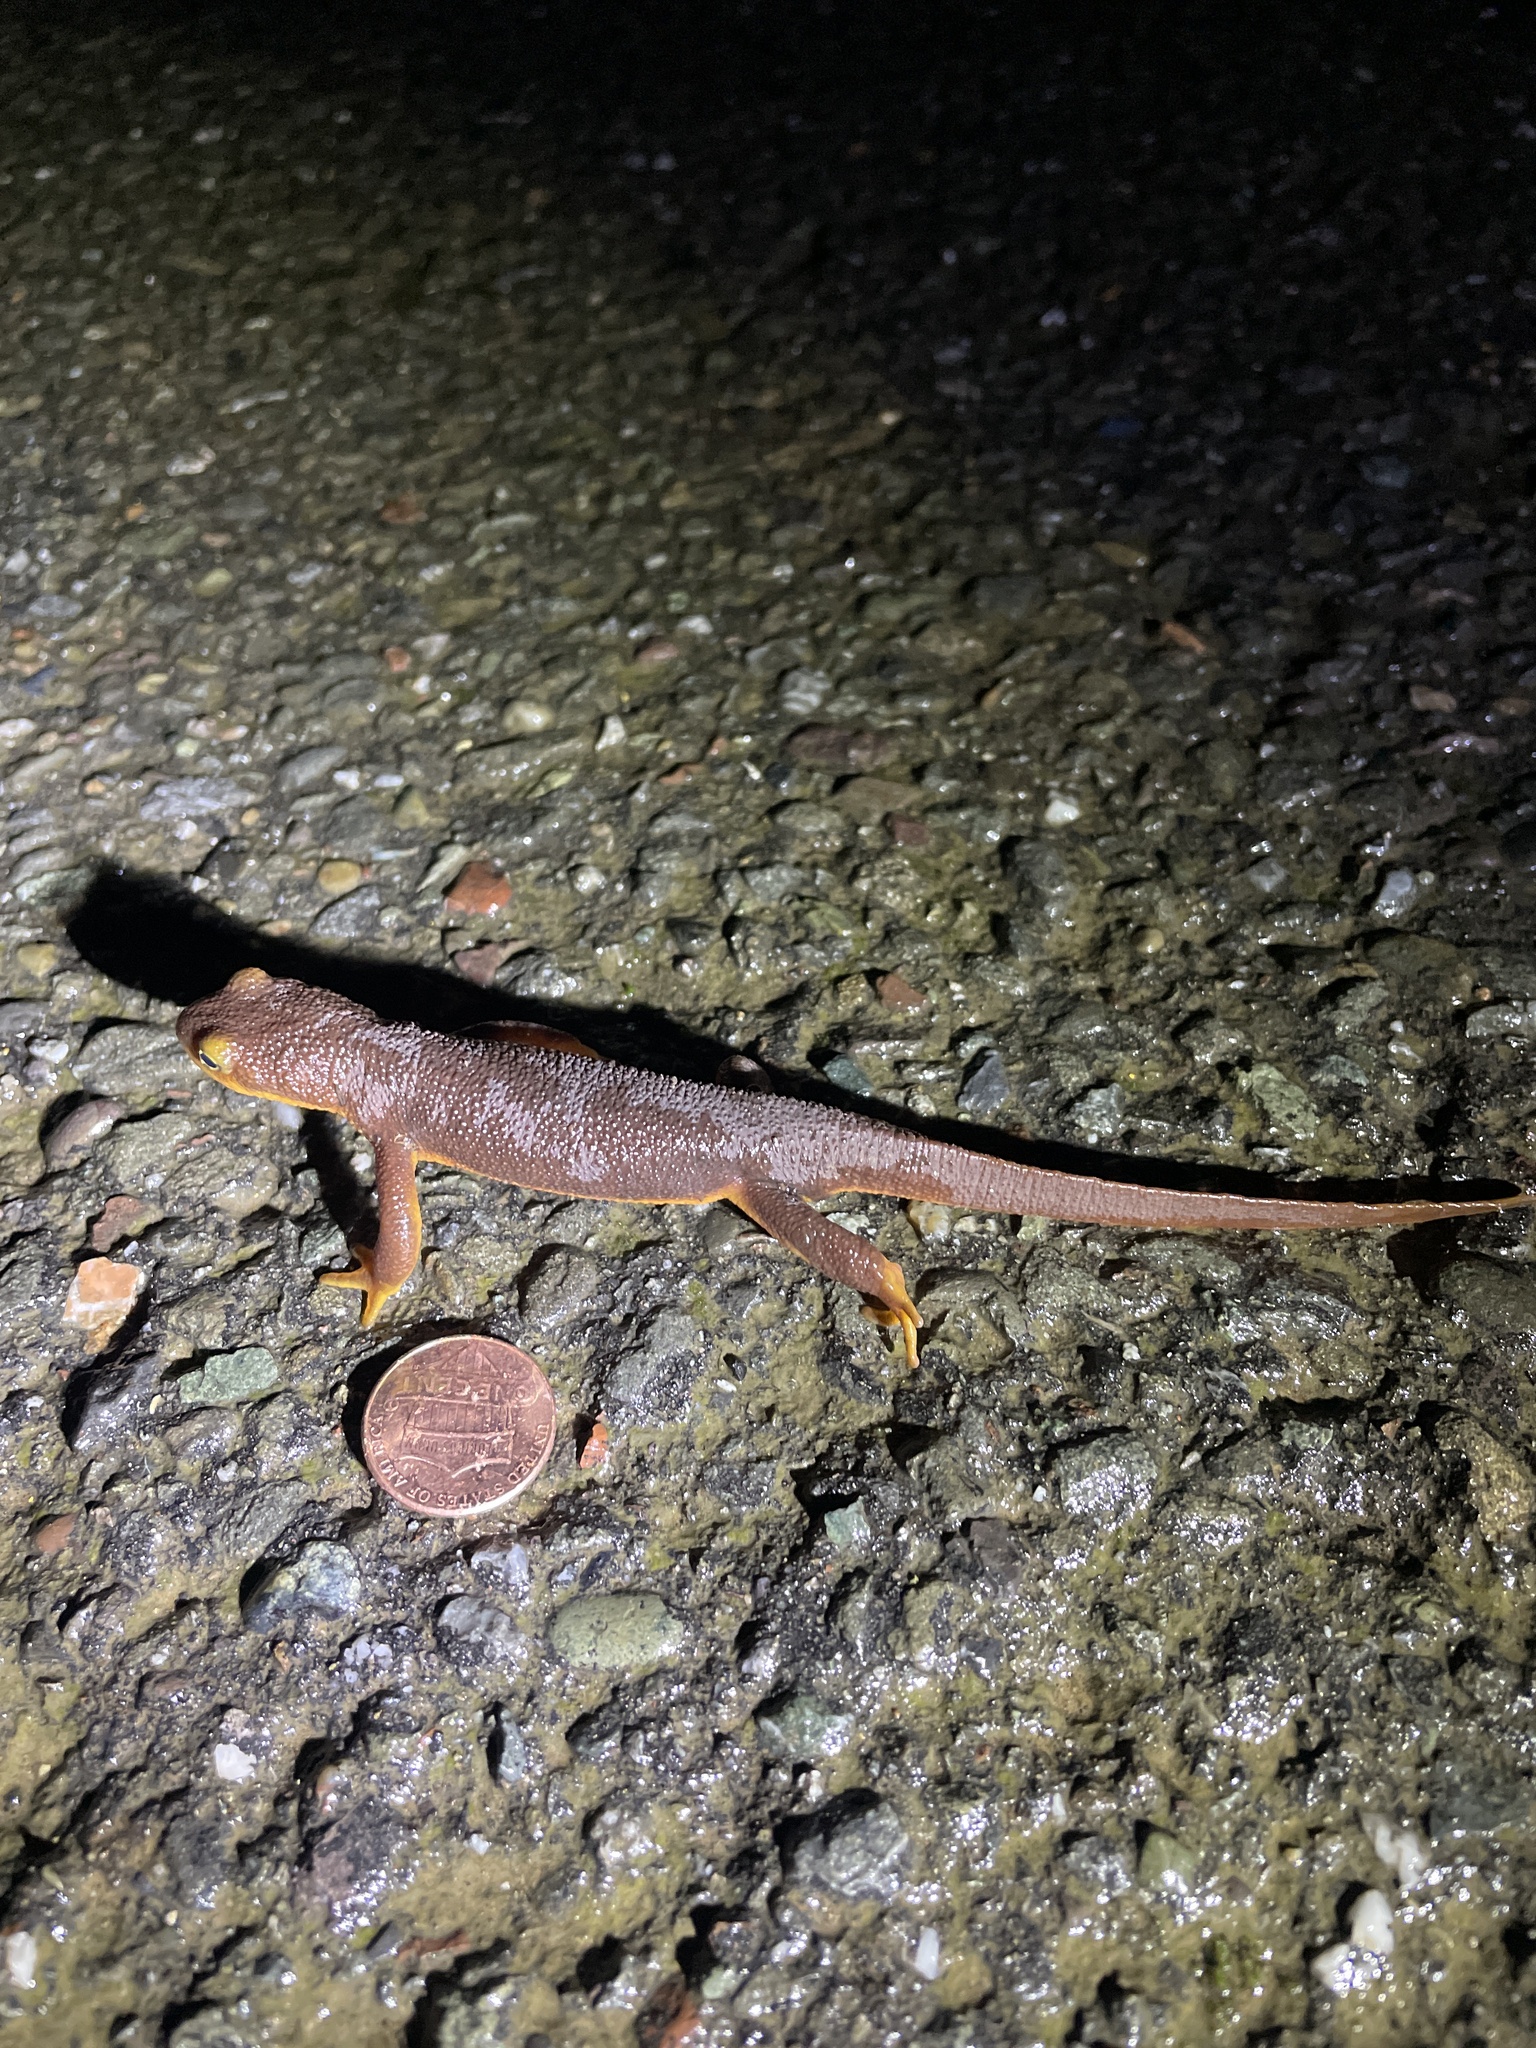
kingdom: Animalia
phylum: Chordata
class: Amphibia
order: Caudata
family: Salamandridae
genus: Taricha
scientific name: Taricha torosa
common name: California newt
